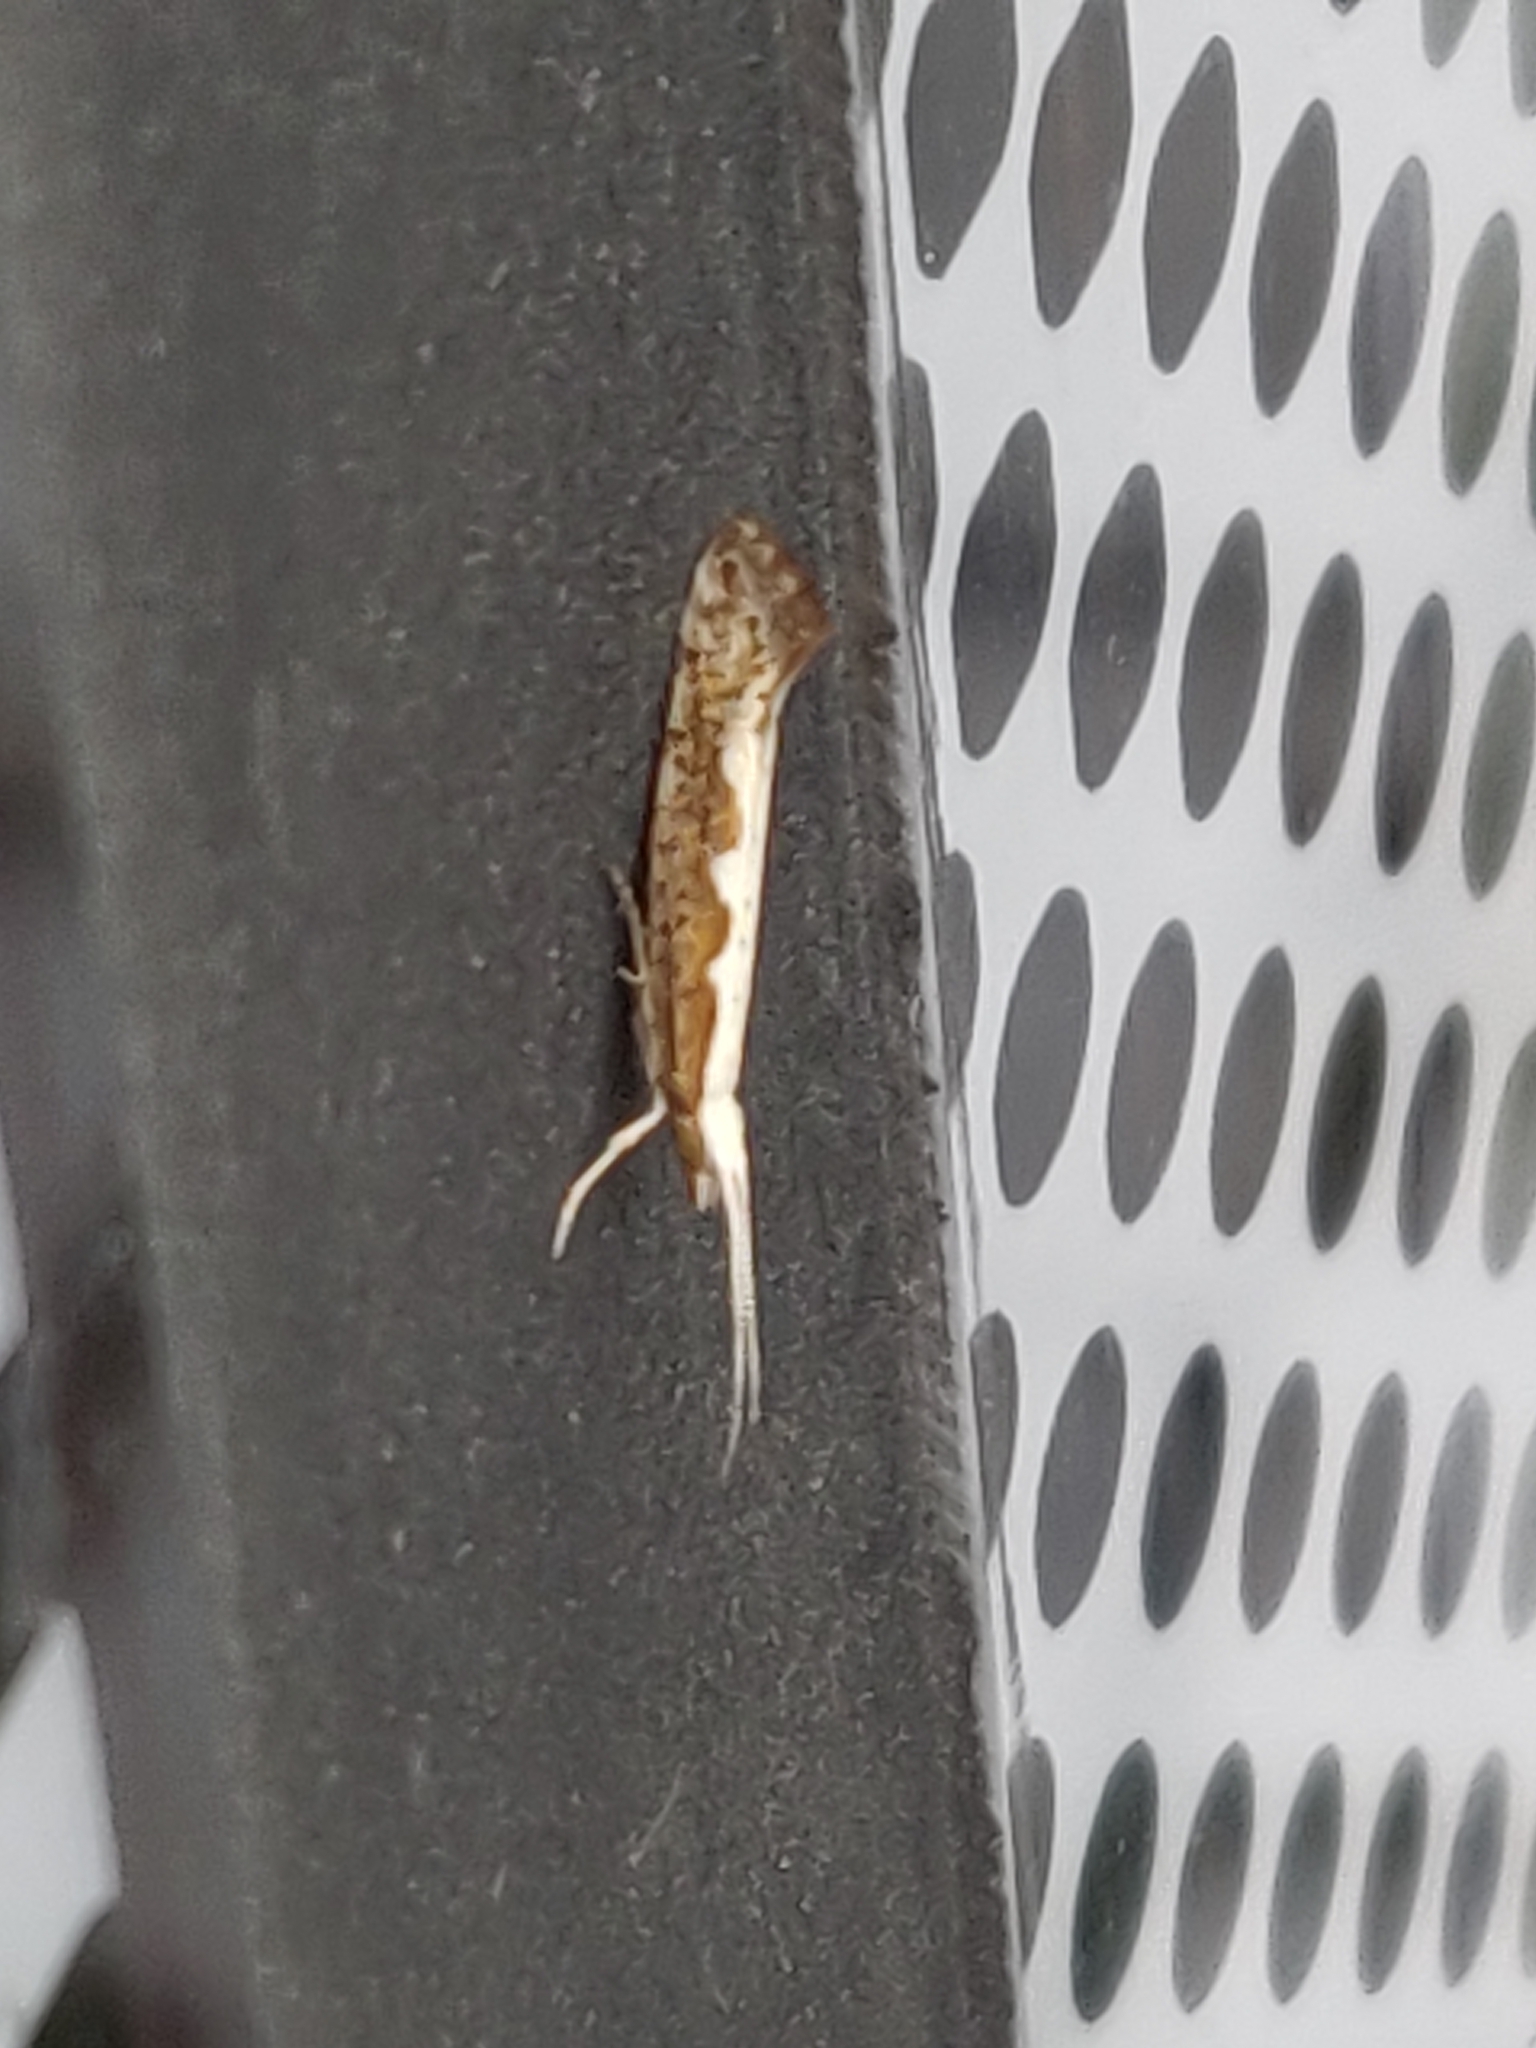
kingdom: Animalia
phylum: Arthropoda
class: Insecta
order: Lepidoptera
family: Plutellidae
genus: Plutella
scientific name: Plutella xylostella
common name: Diamond-back moth
